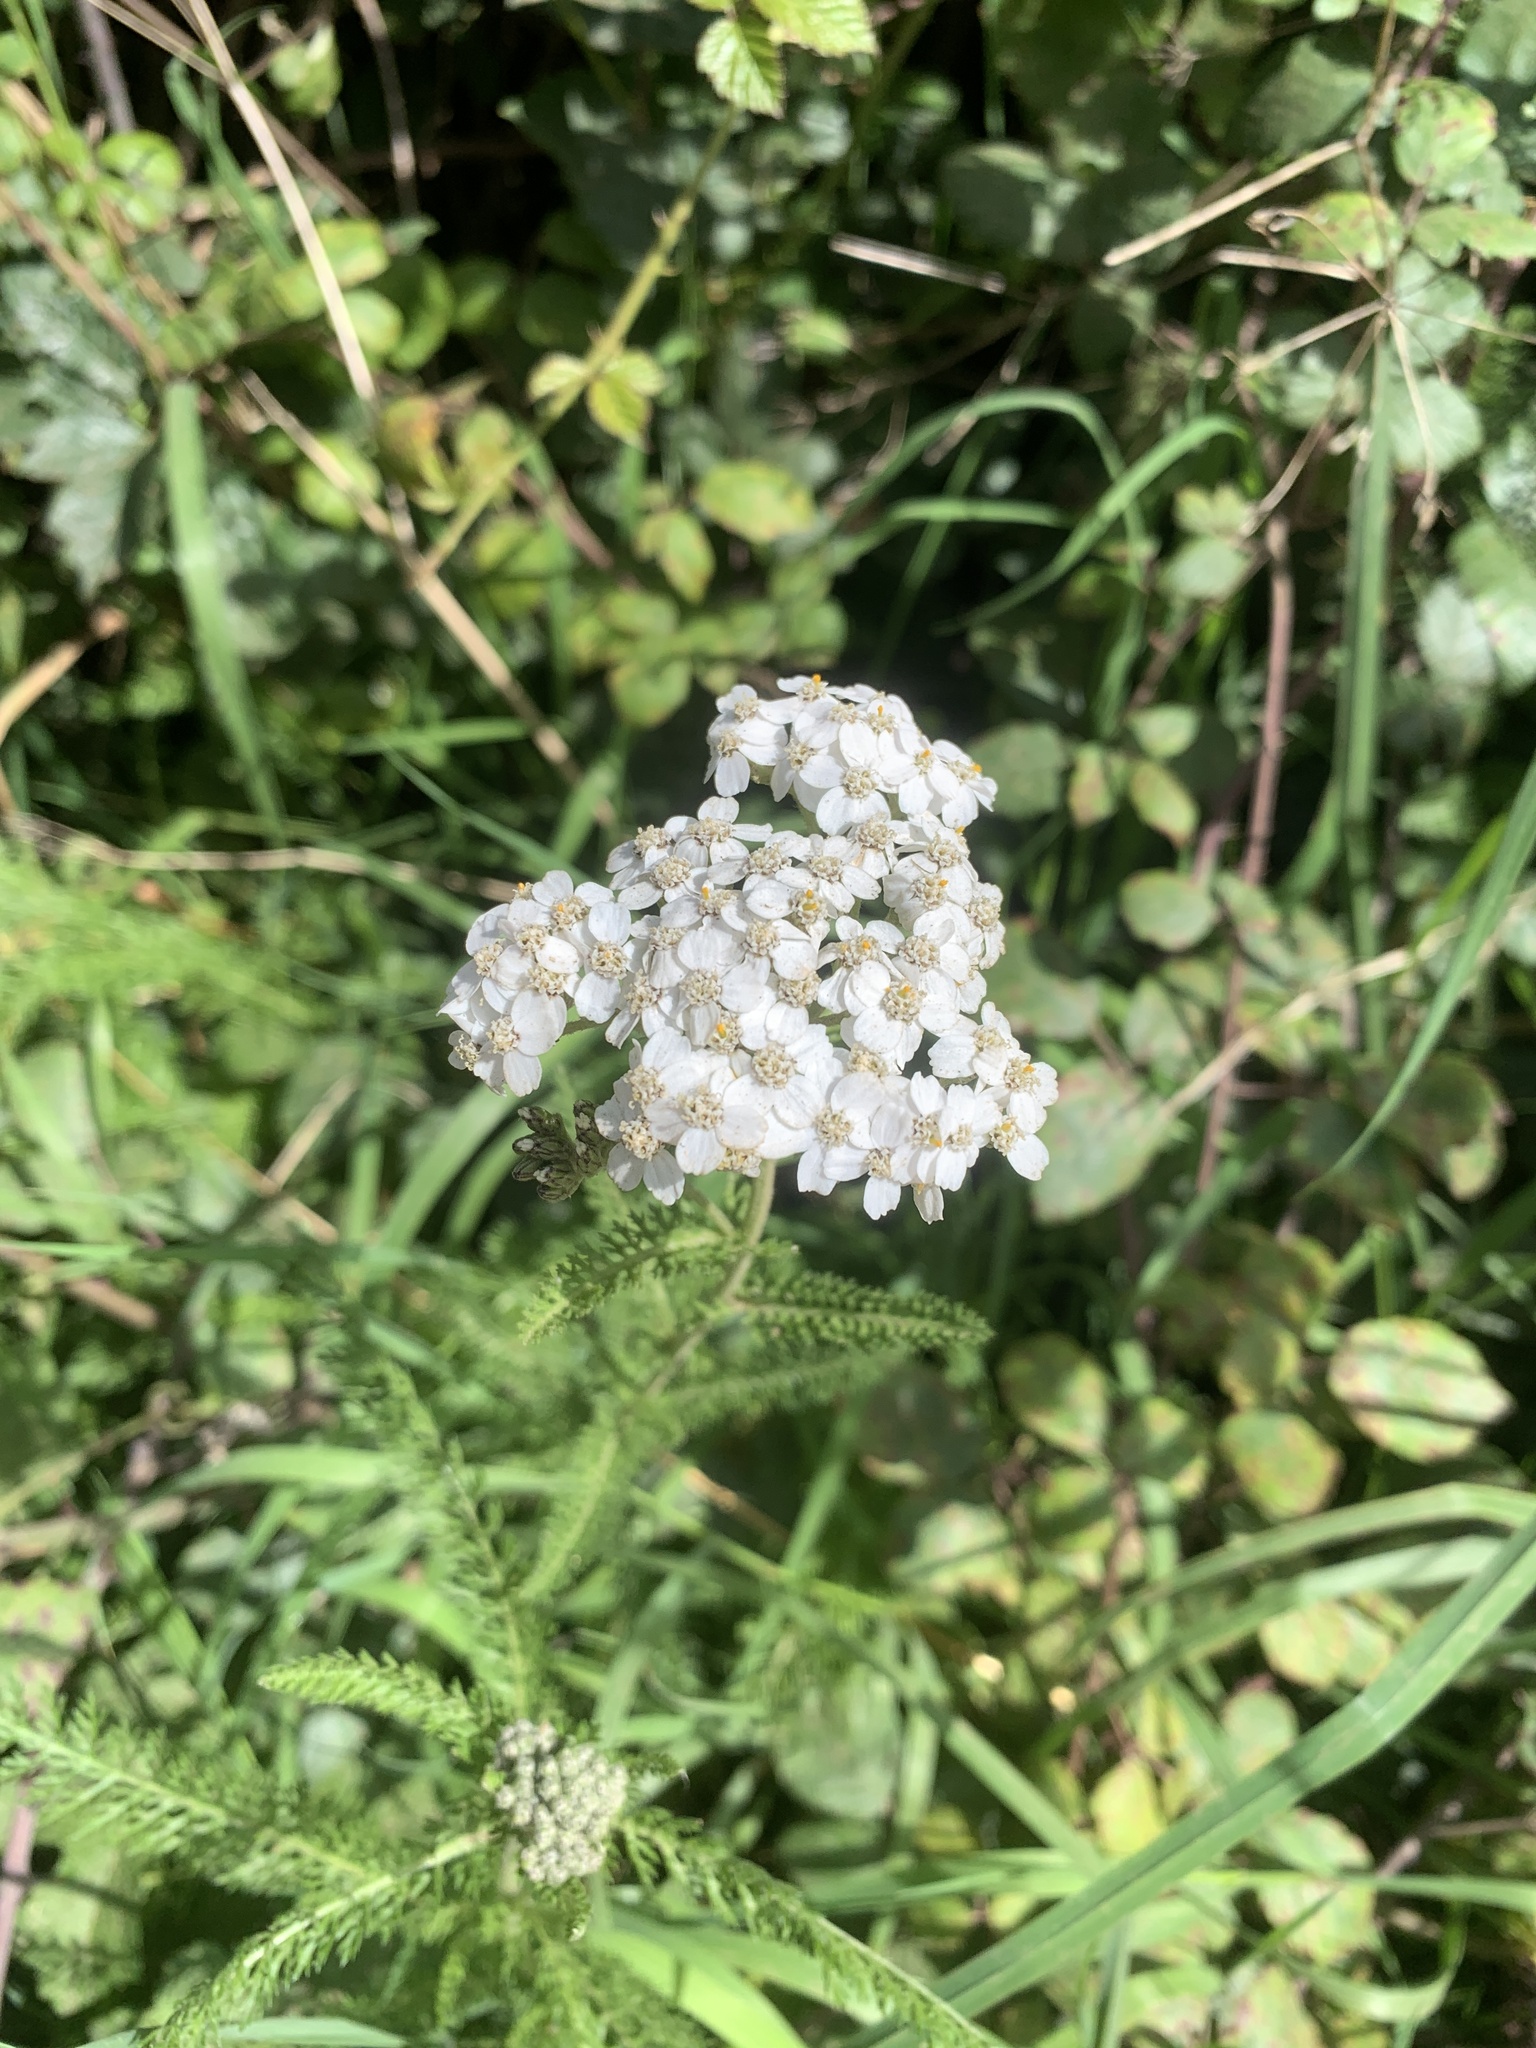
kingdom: Plantae
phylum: Tracheophyta
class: Magnoliopsida
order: Asterales
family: Asteraceae
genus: Achillea
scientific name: Achillea millefolium
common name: Yarrow
